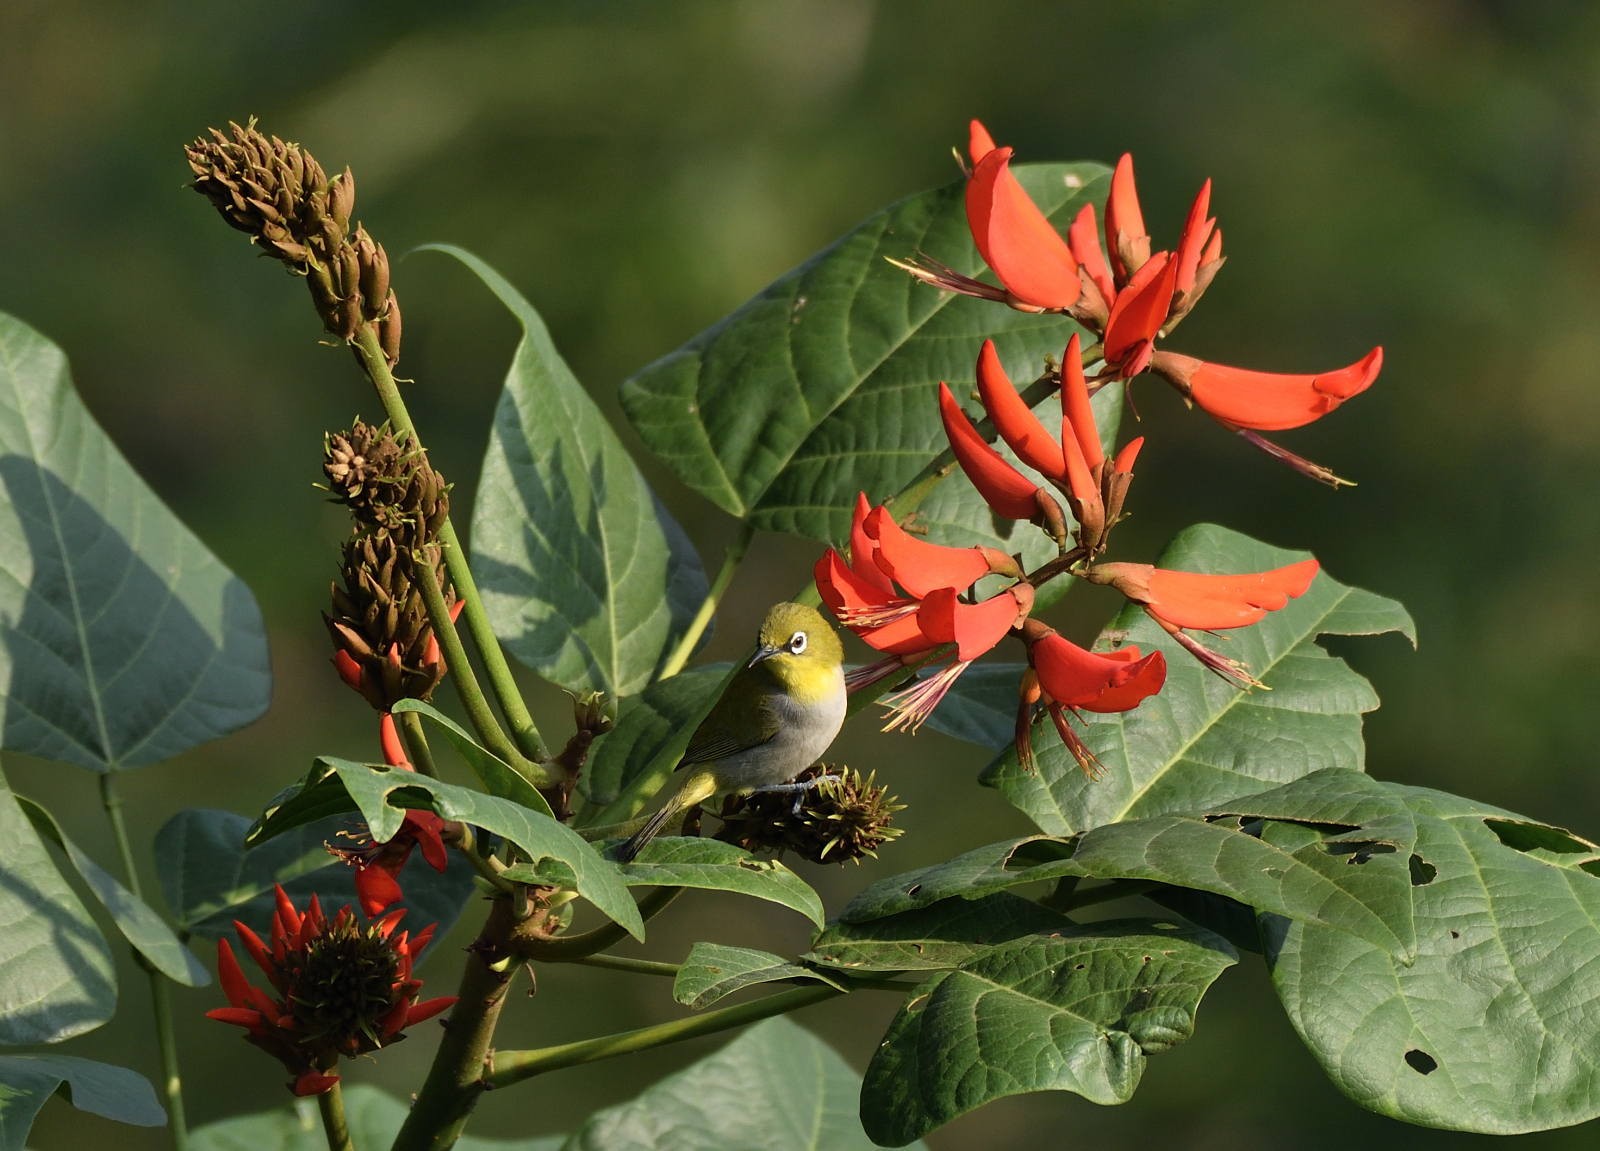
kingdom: Animalia
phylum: Chordata
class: Aves
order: Passeriformes
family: Zosteropidae
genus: Zosterops
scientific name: Zosterops palpebrosus
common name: Oriental white-eye
